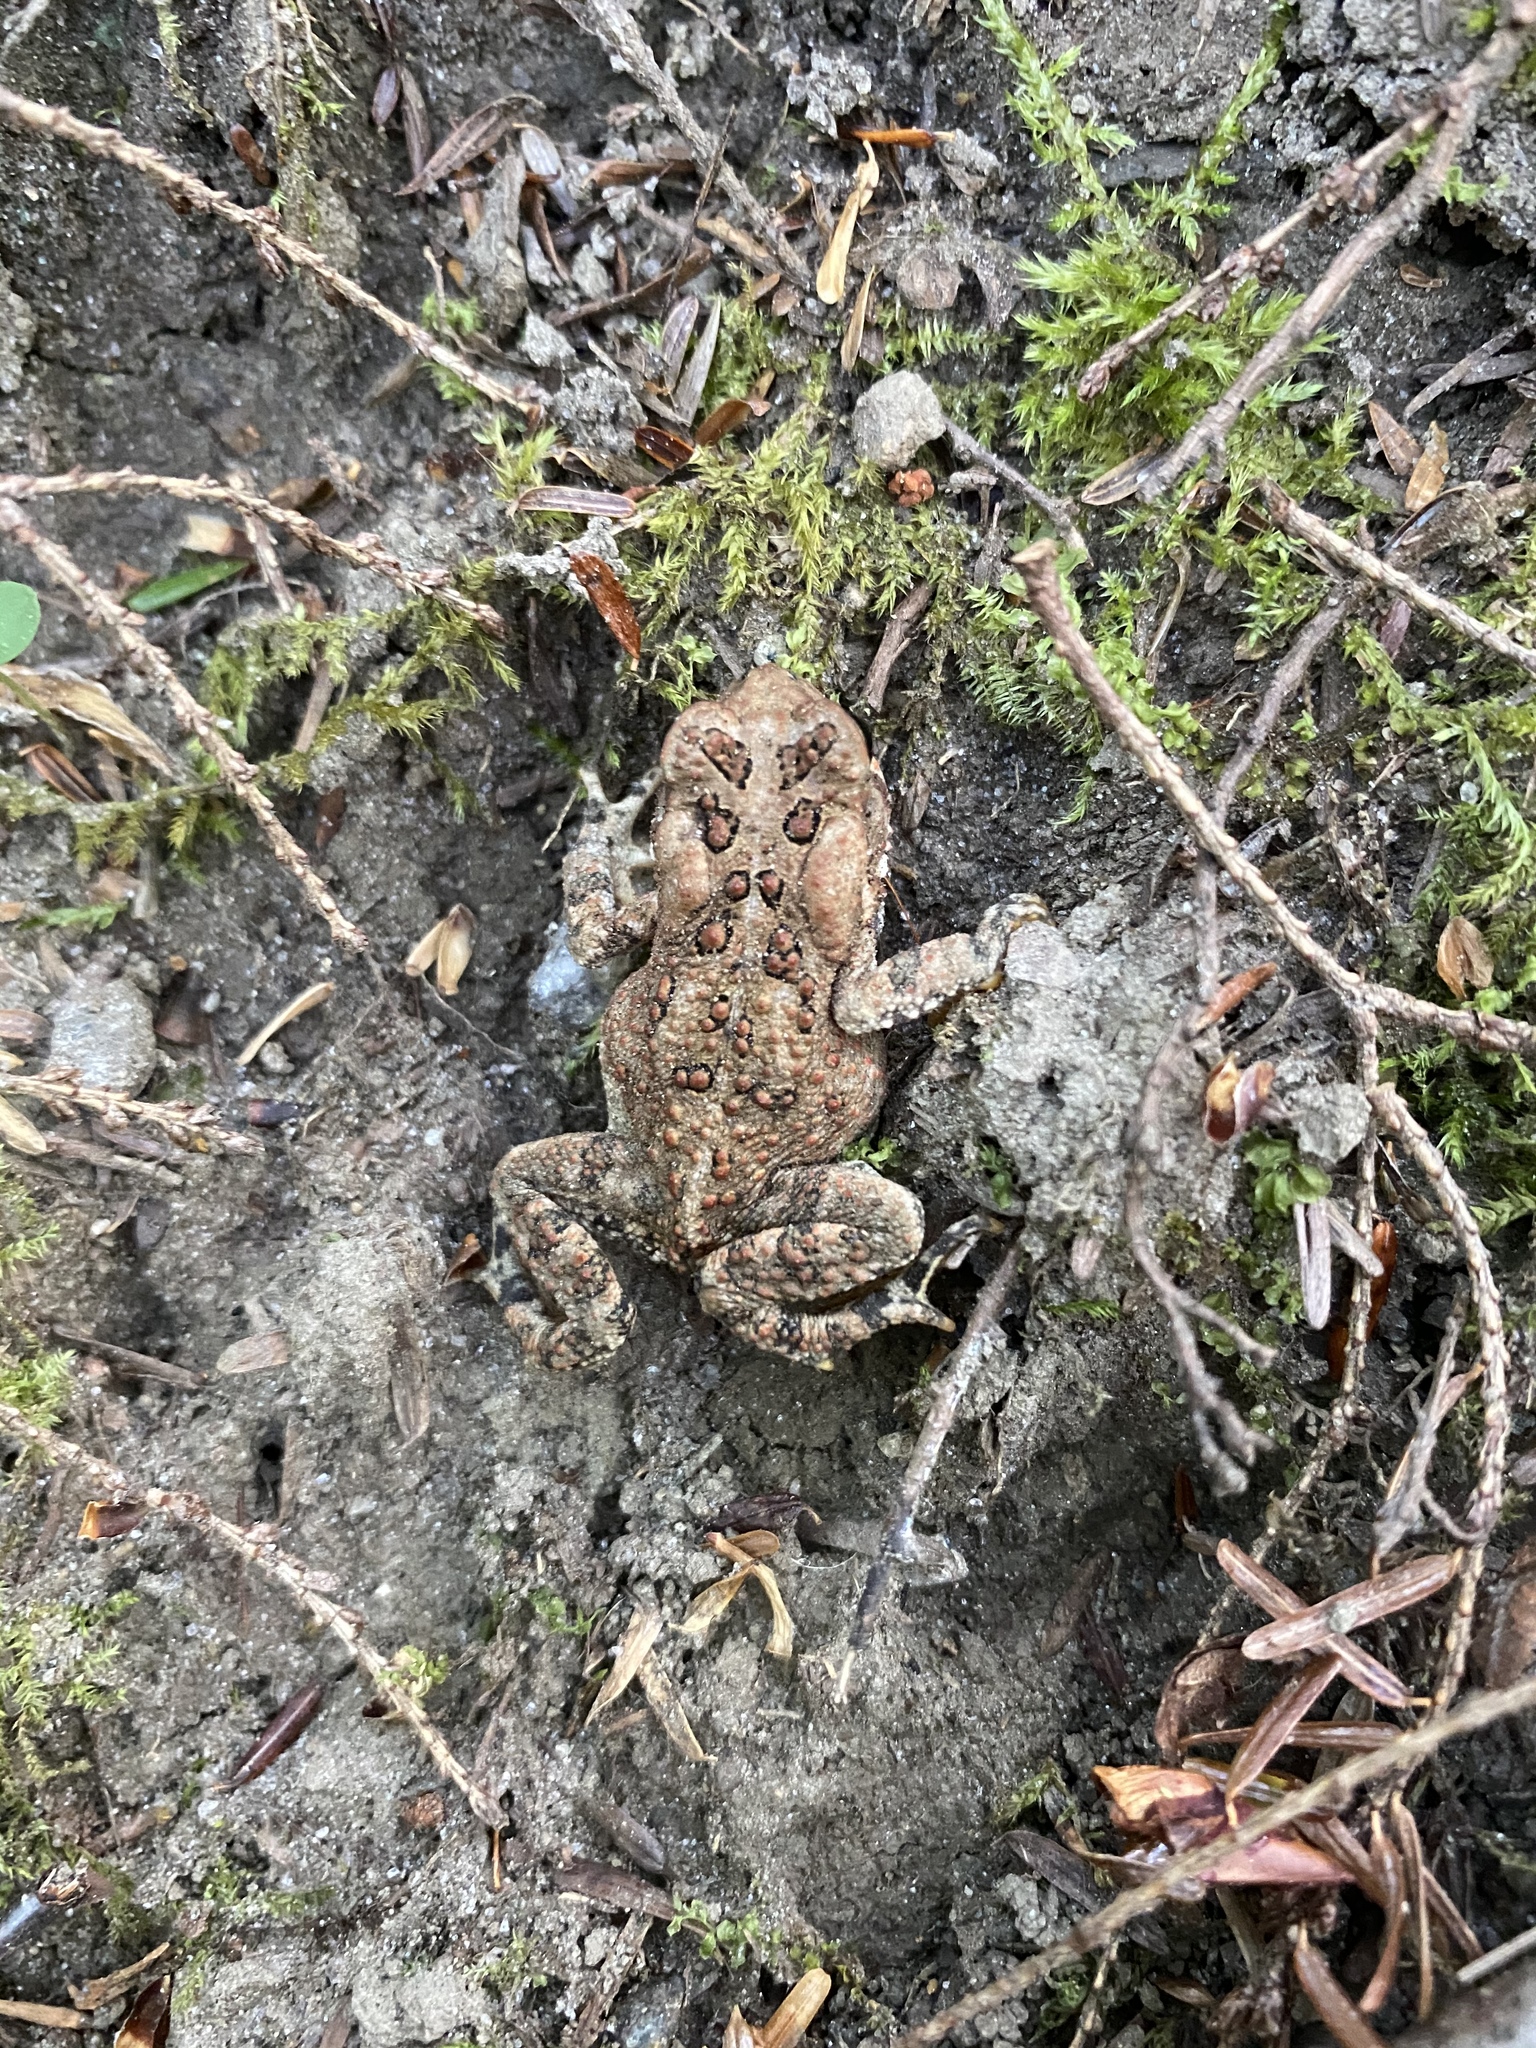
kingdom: Animalia
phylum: Chordata
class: Amphibia
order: Anura
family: Bufonidae
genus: Anaxyrus
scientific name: Anaxyrus americanus
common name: American toad
